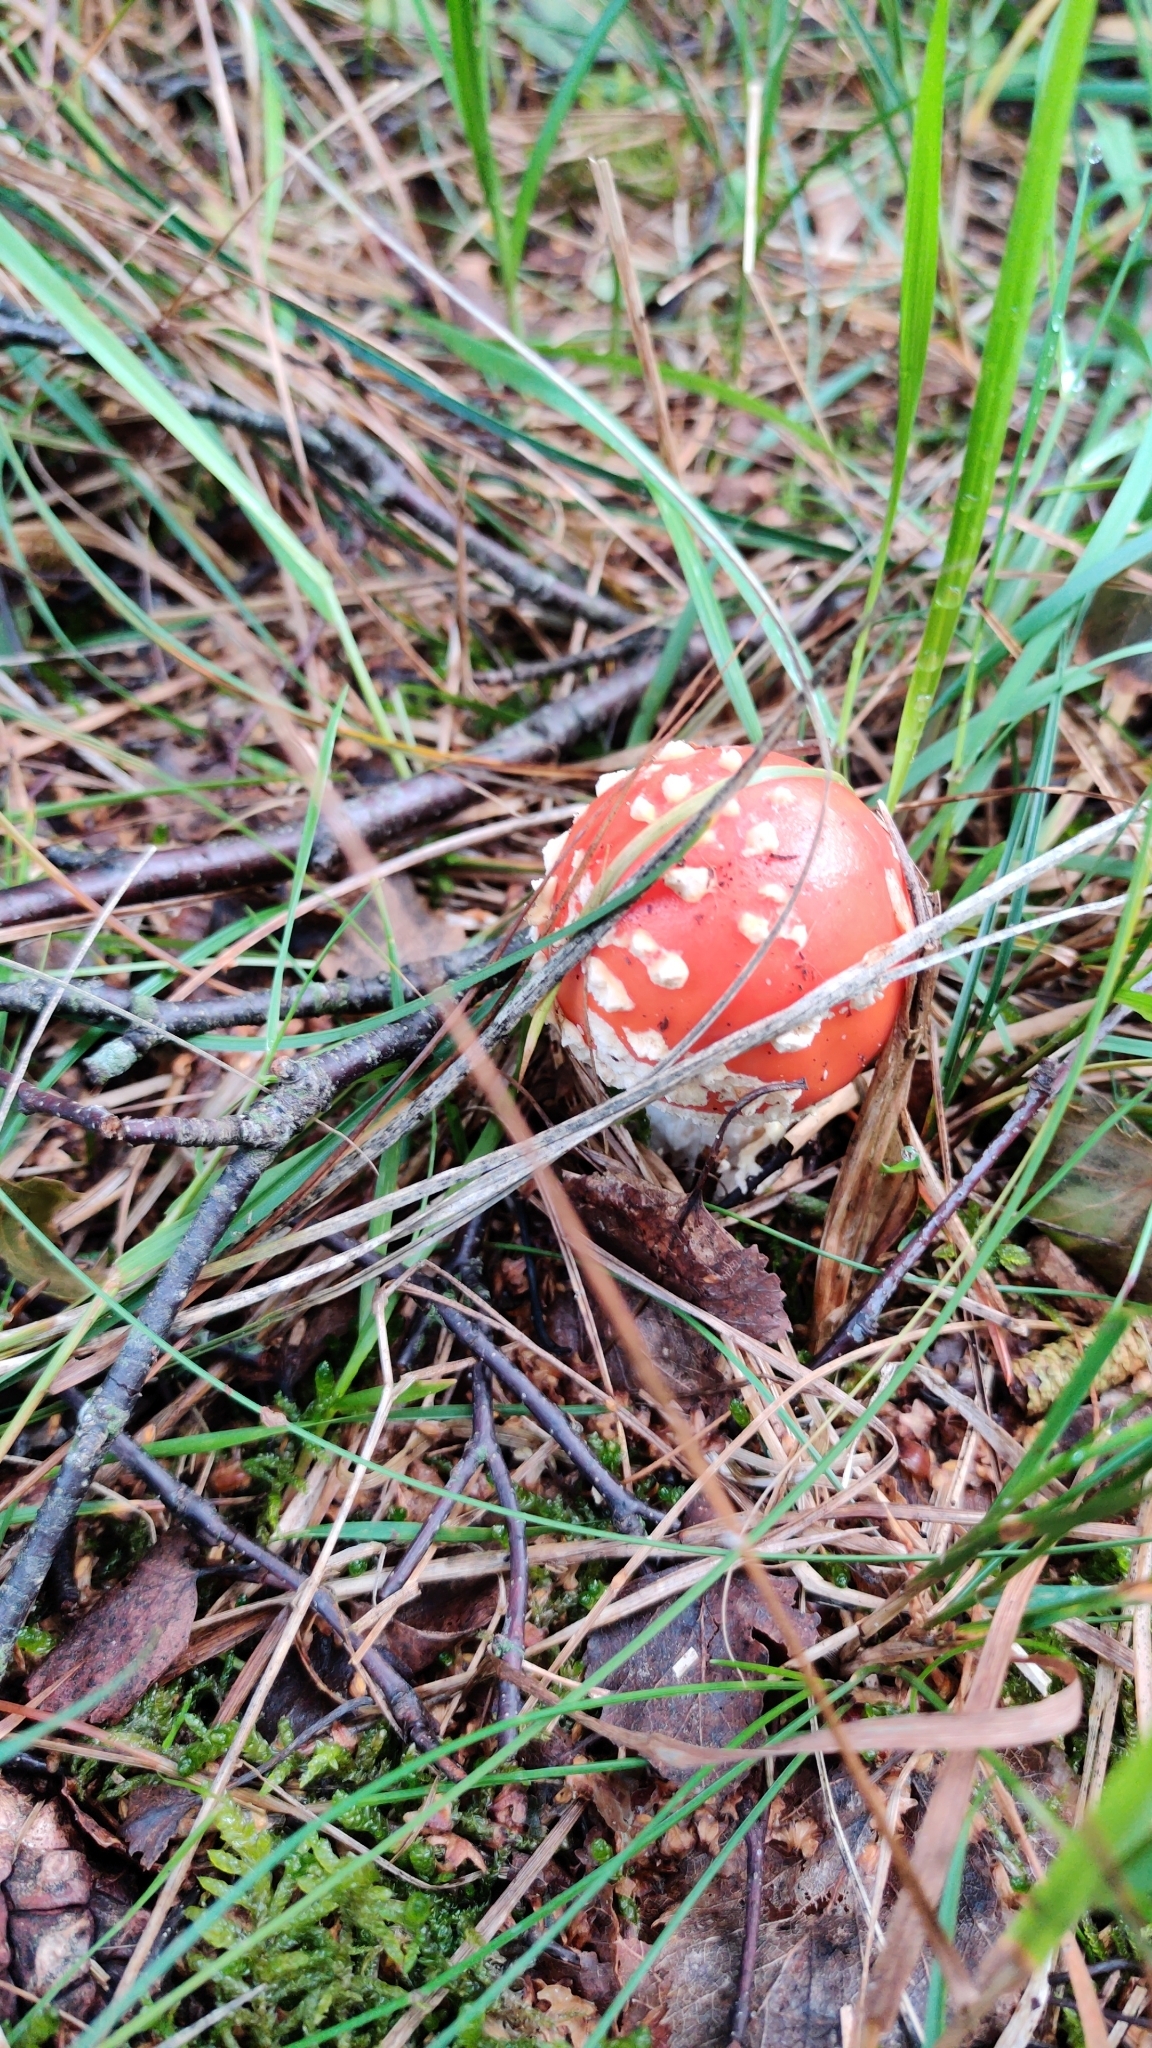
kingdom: Fungi
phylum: Basidiomycota
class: Agaricomycetes
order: Agaricales
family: Amanitaceae
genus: Amanita
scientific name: Amanita muscaria
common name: Fly agaric
